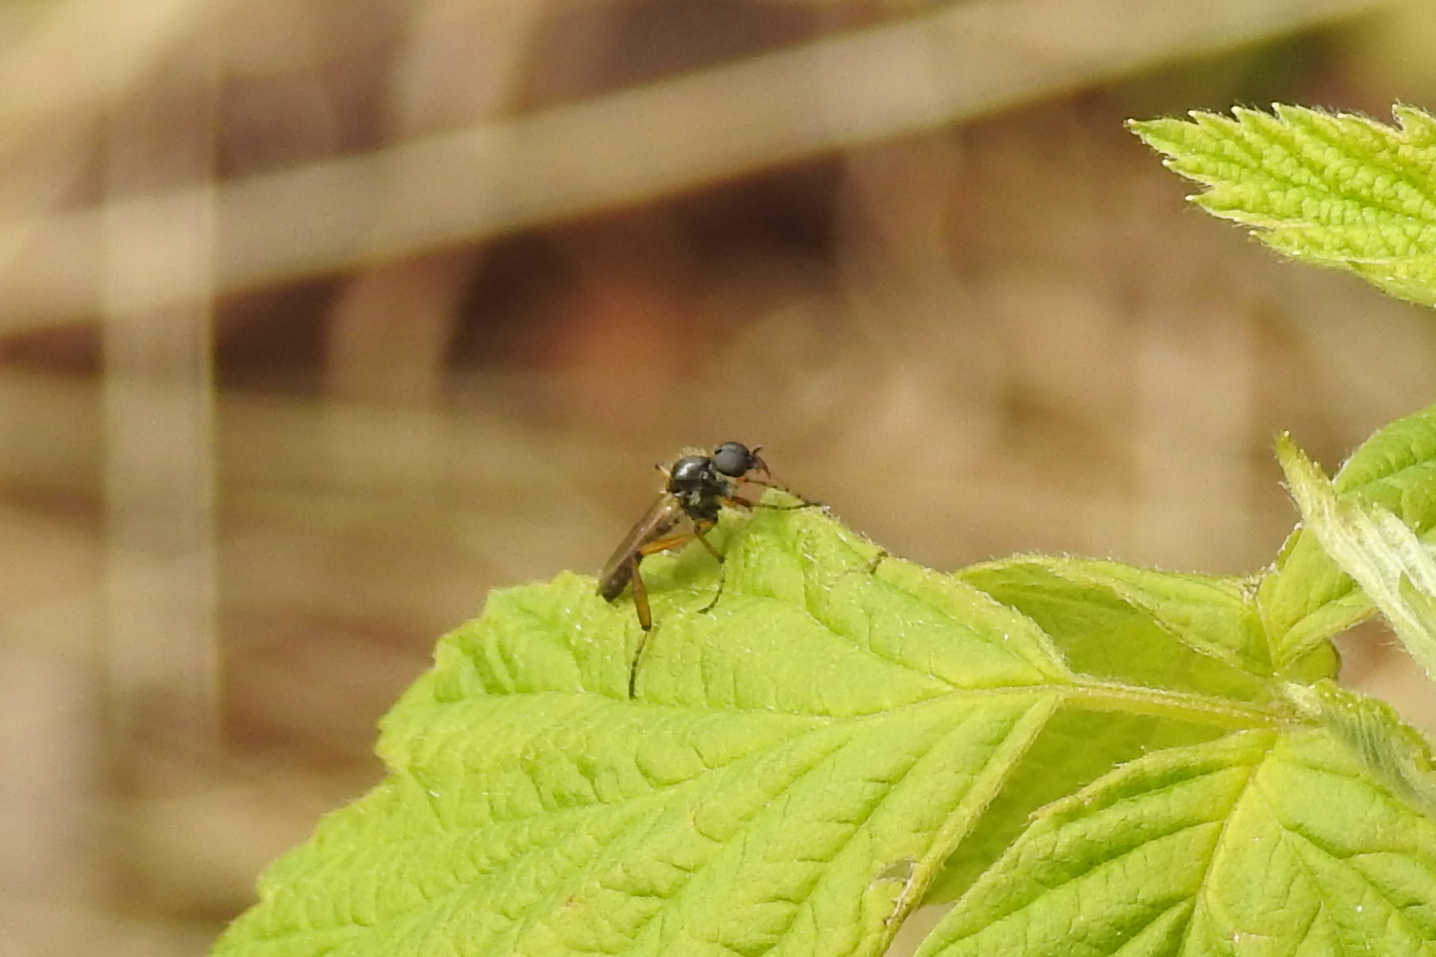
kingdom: Animalia
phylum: Arthropoda
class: Insecta
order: Diptera
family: Bibionidae
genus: Bibio
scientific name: Bibio
